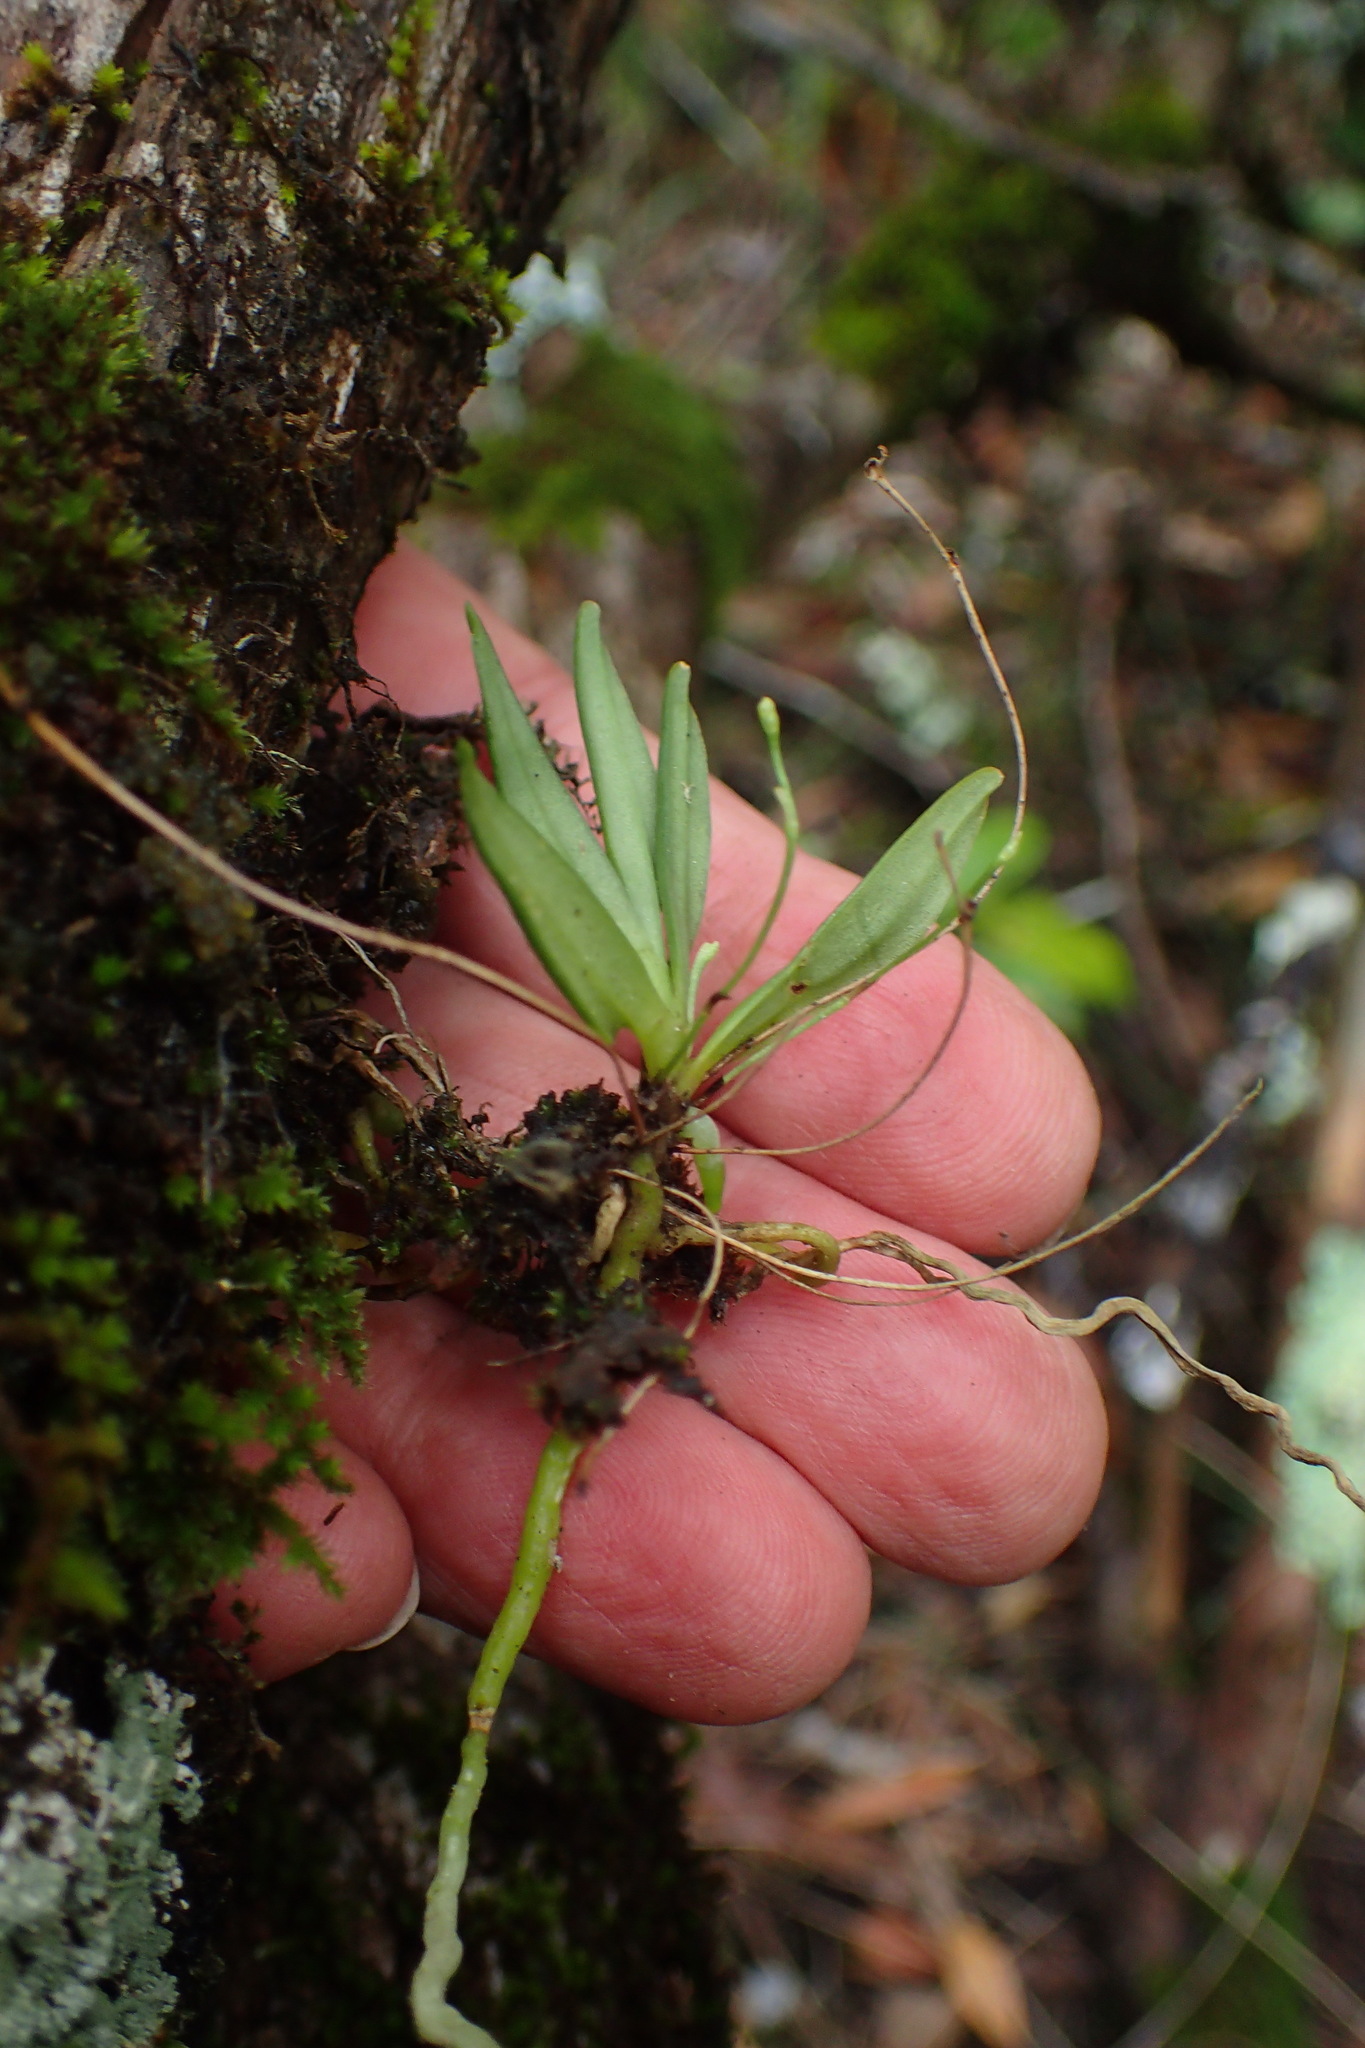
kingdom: Plantae
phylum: Tracheophyta
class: Liliopsida
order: Asparagales
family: Orchidaceae
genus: Angraecum
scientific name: Angraecum sacciferum
